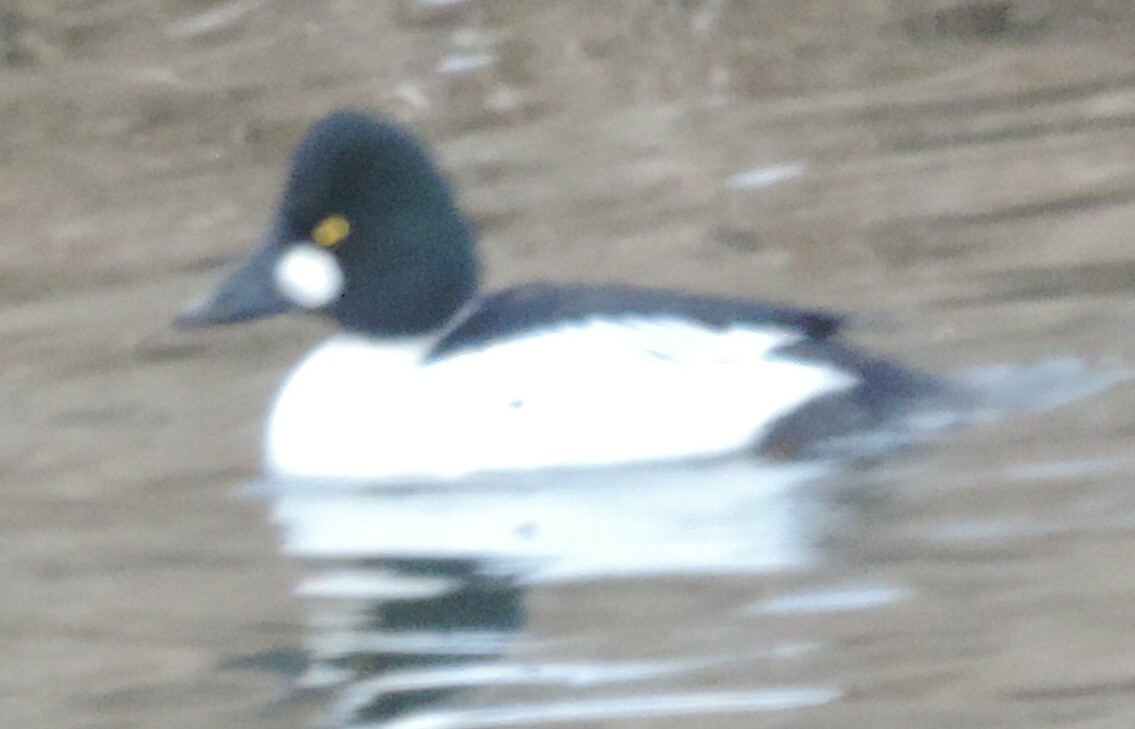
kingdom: Animalia
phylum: Chordata
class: Aves
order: Anseriformes
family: Anatidae
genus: Bucephala
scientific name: Bucephala clangula
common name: Common goldeneye
